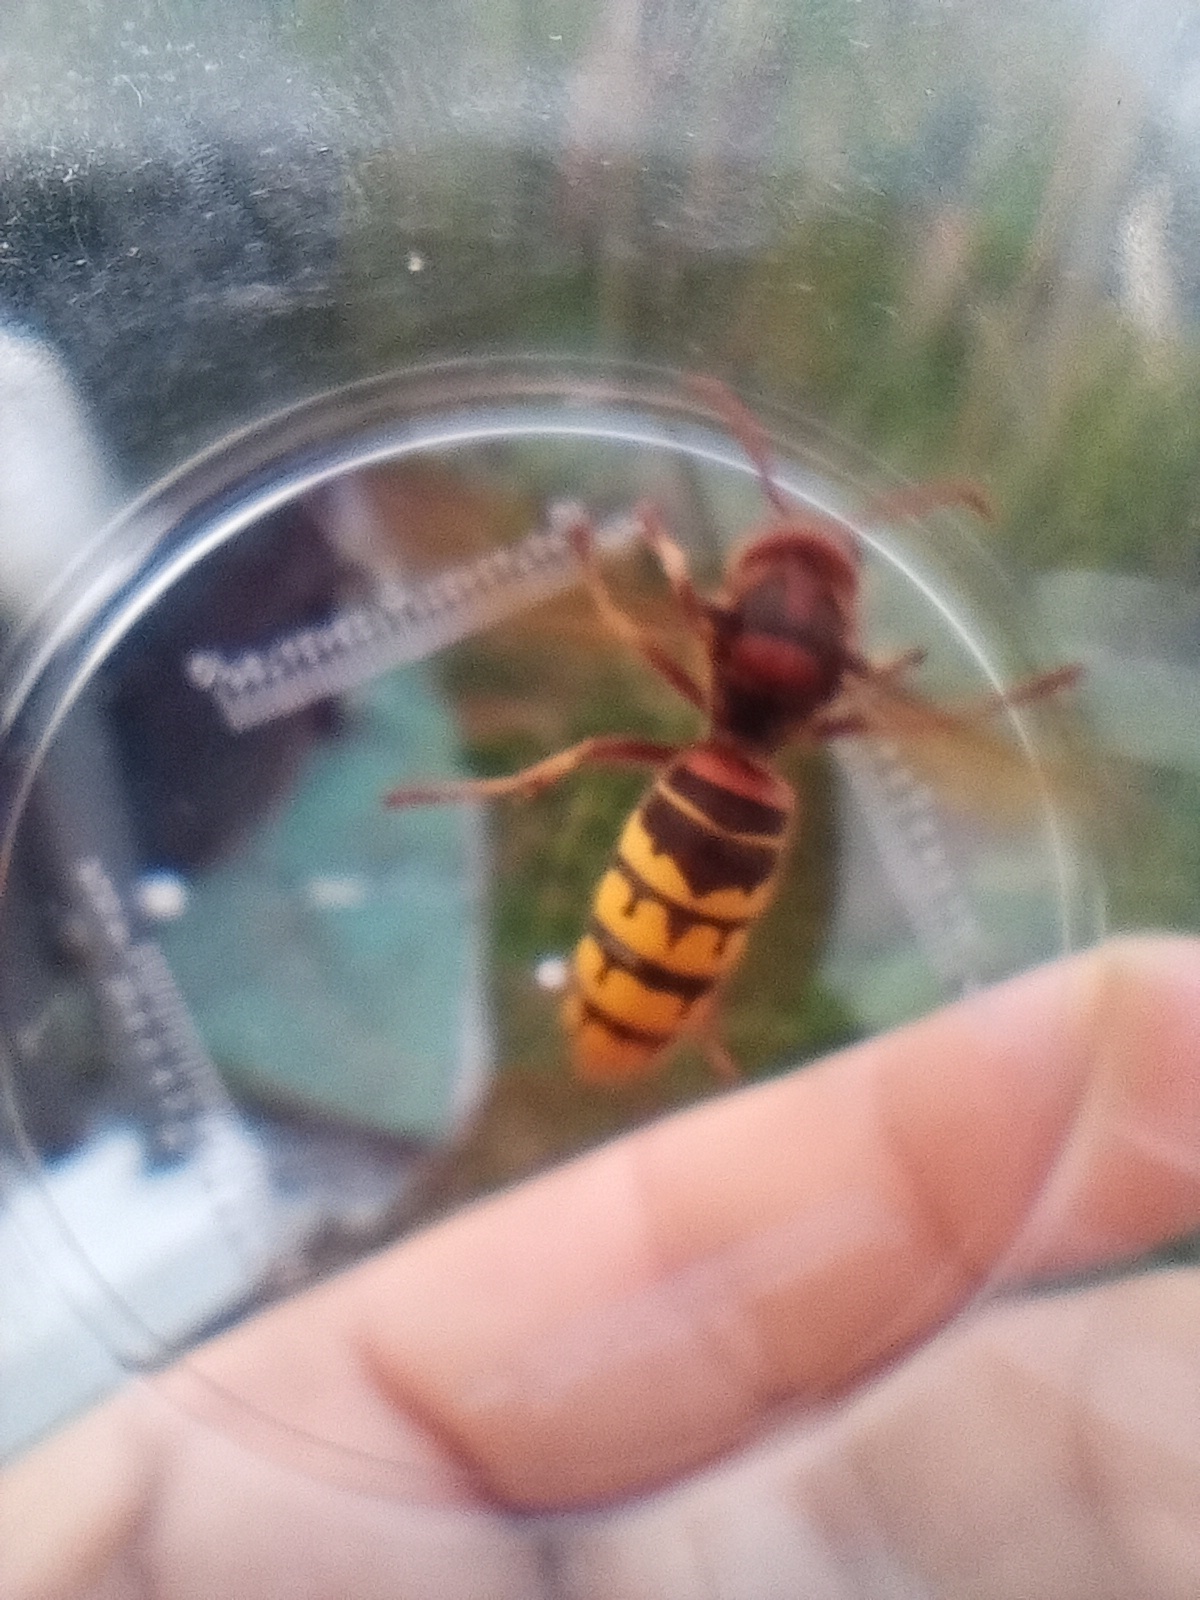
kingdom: Animalia
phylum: Arthropoda
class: Insecta
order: Hymenoptera
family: Vespidae
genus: Vespa
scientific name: Vespa crabro
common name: Hornet
